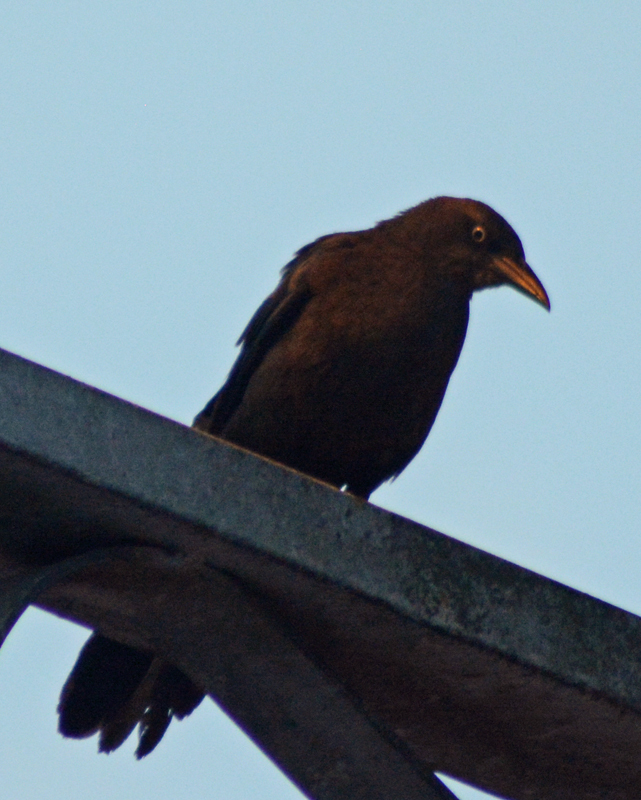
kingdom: Animalia
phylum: Chordata
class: Aves
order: Passeriformes
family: Icteridae
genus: Quiscalus
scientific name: Quiscalus mexicanus
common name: Great-tailed grackle
